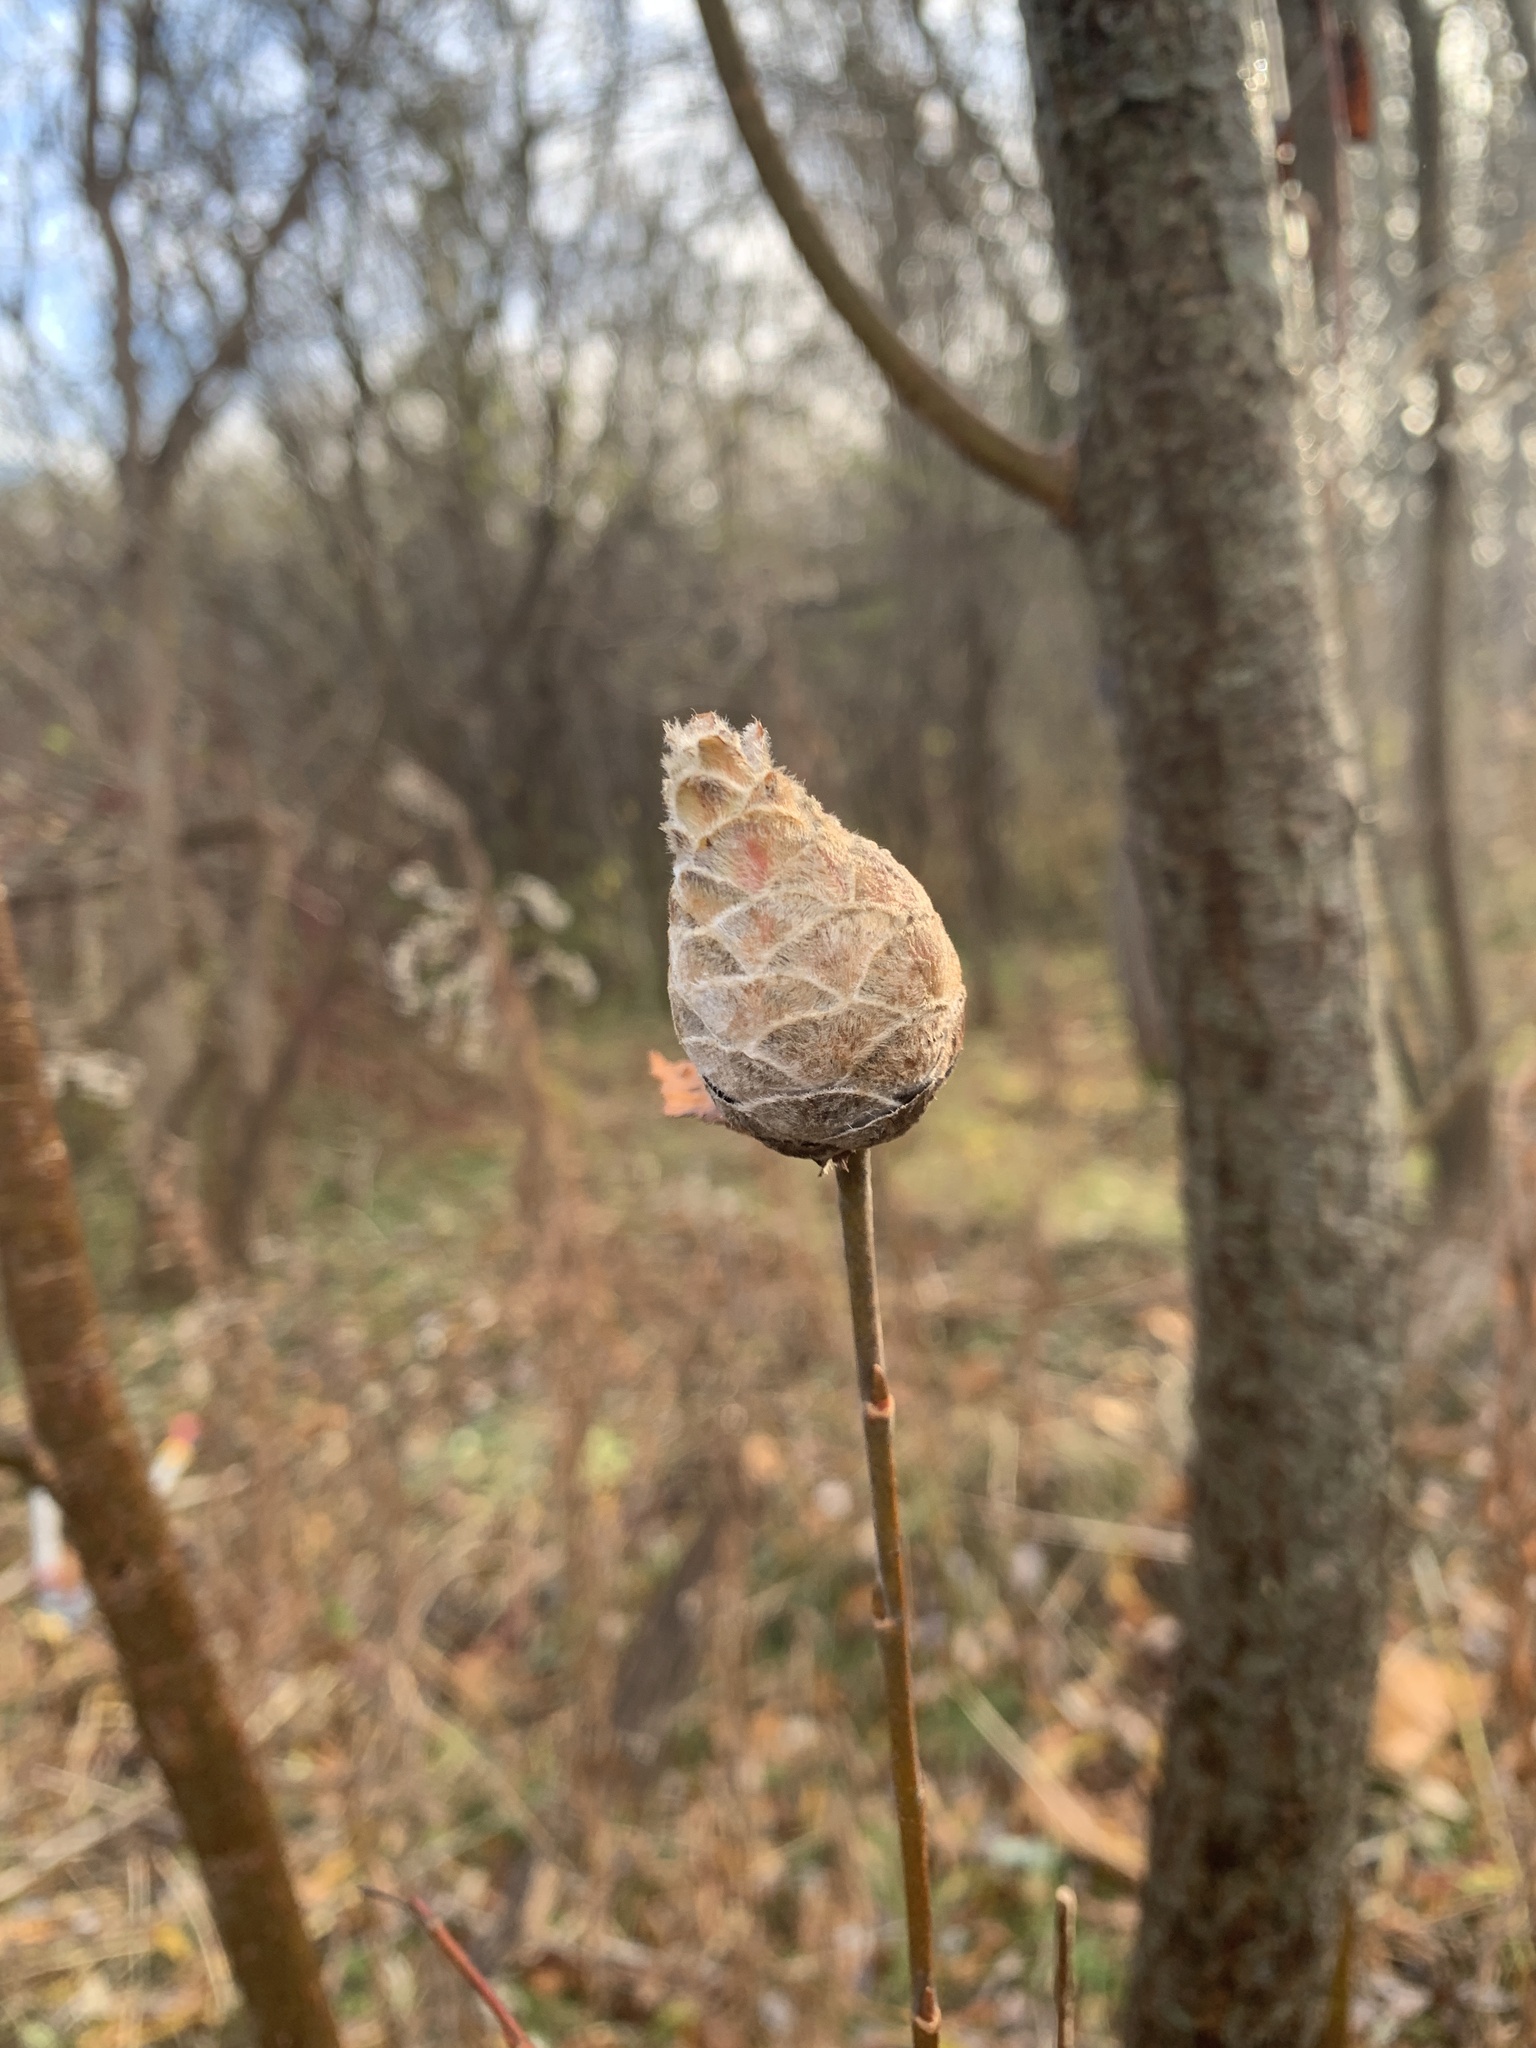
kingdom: Animalia
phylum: Arthropoda
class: Insecta
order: Diptera
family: Cecidomyiidae
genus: Rabdophaga
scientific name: Rabdophaga strobiloides
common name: Willow pinecone gall midge
